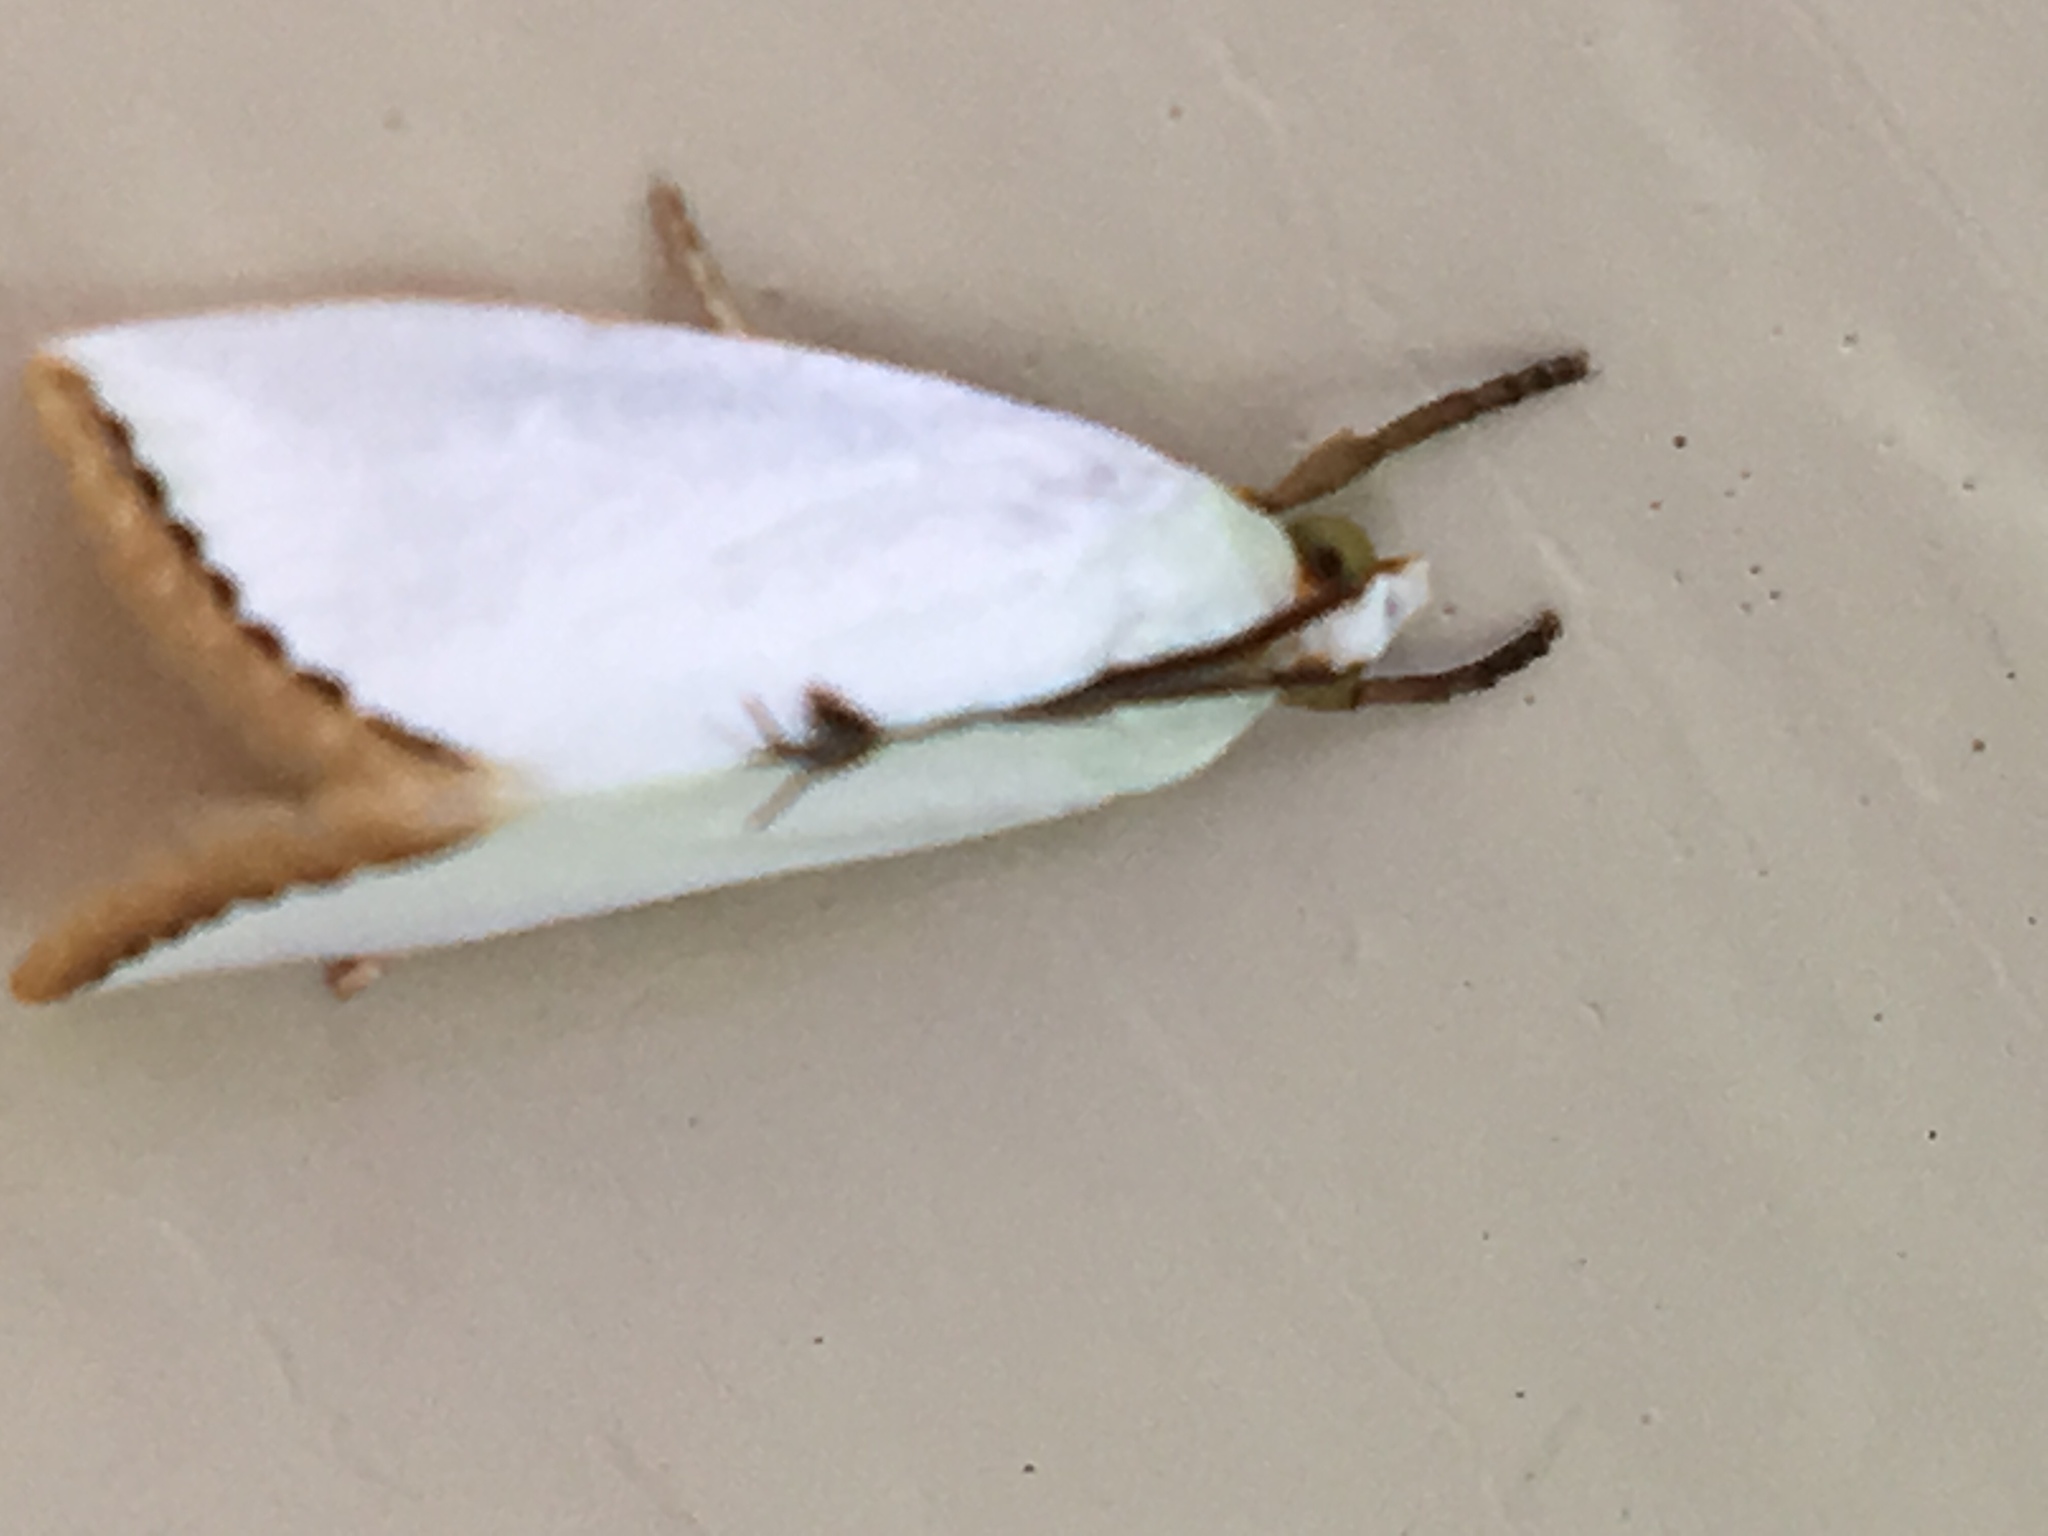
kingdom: Animalia
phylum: Arthropoda
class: Insecta
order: Lepidoptera
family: Crambidae
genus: Argyria
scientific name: Argyria nivalis
